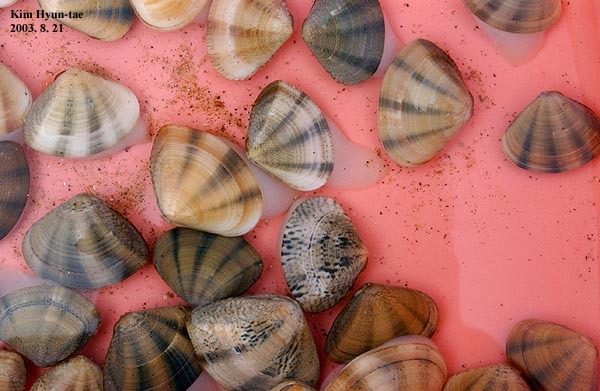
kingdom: Animalia
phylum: Mollusca
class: Bivalvia
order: Venerida
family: Veneridae
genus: Macridiscus
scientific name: Macridiscus multifarius
